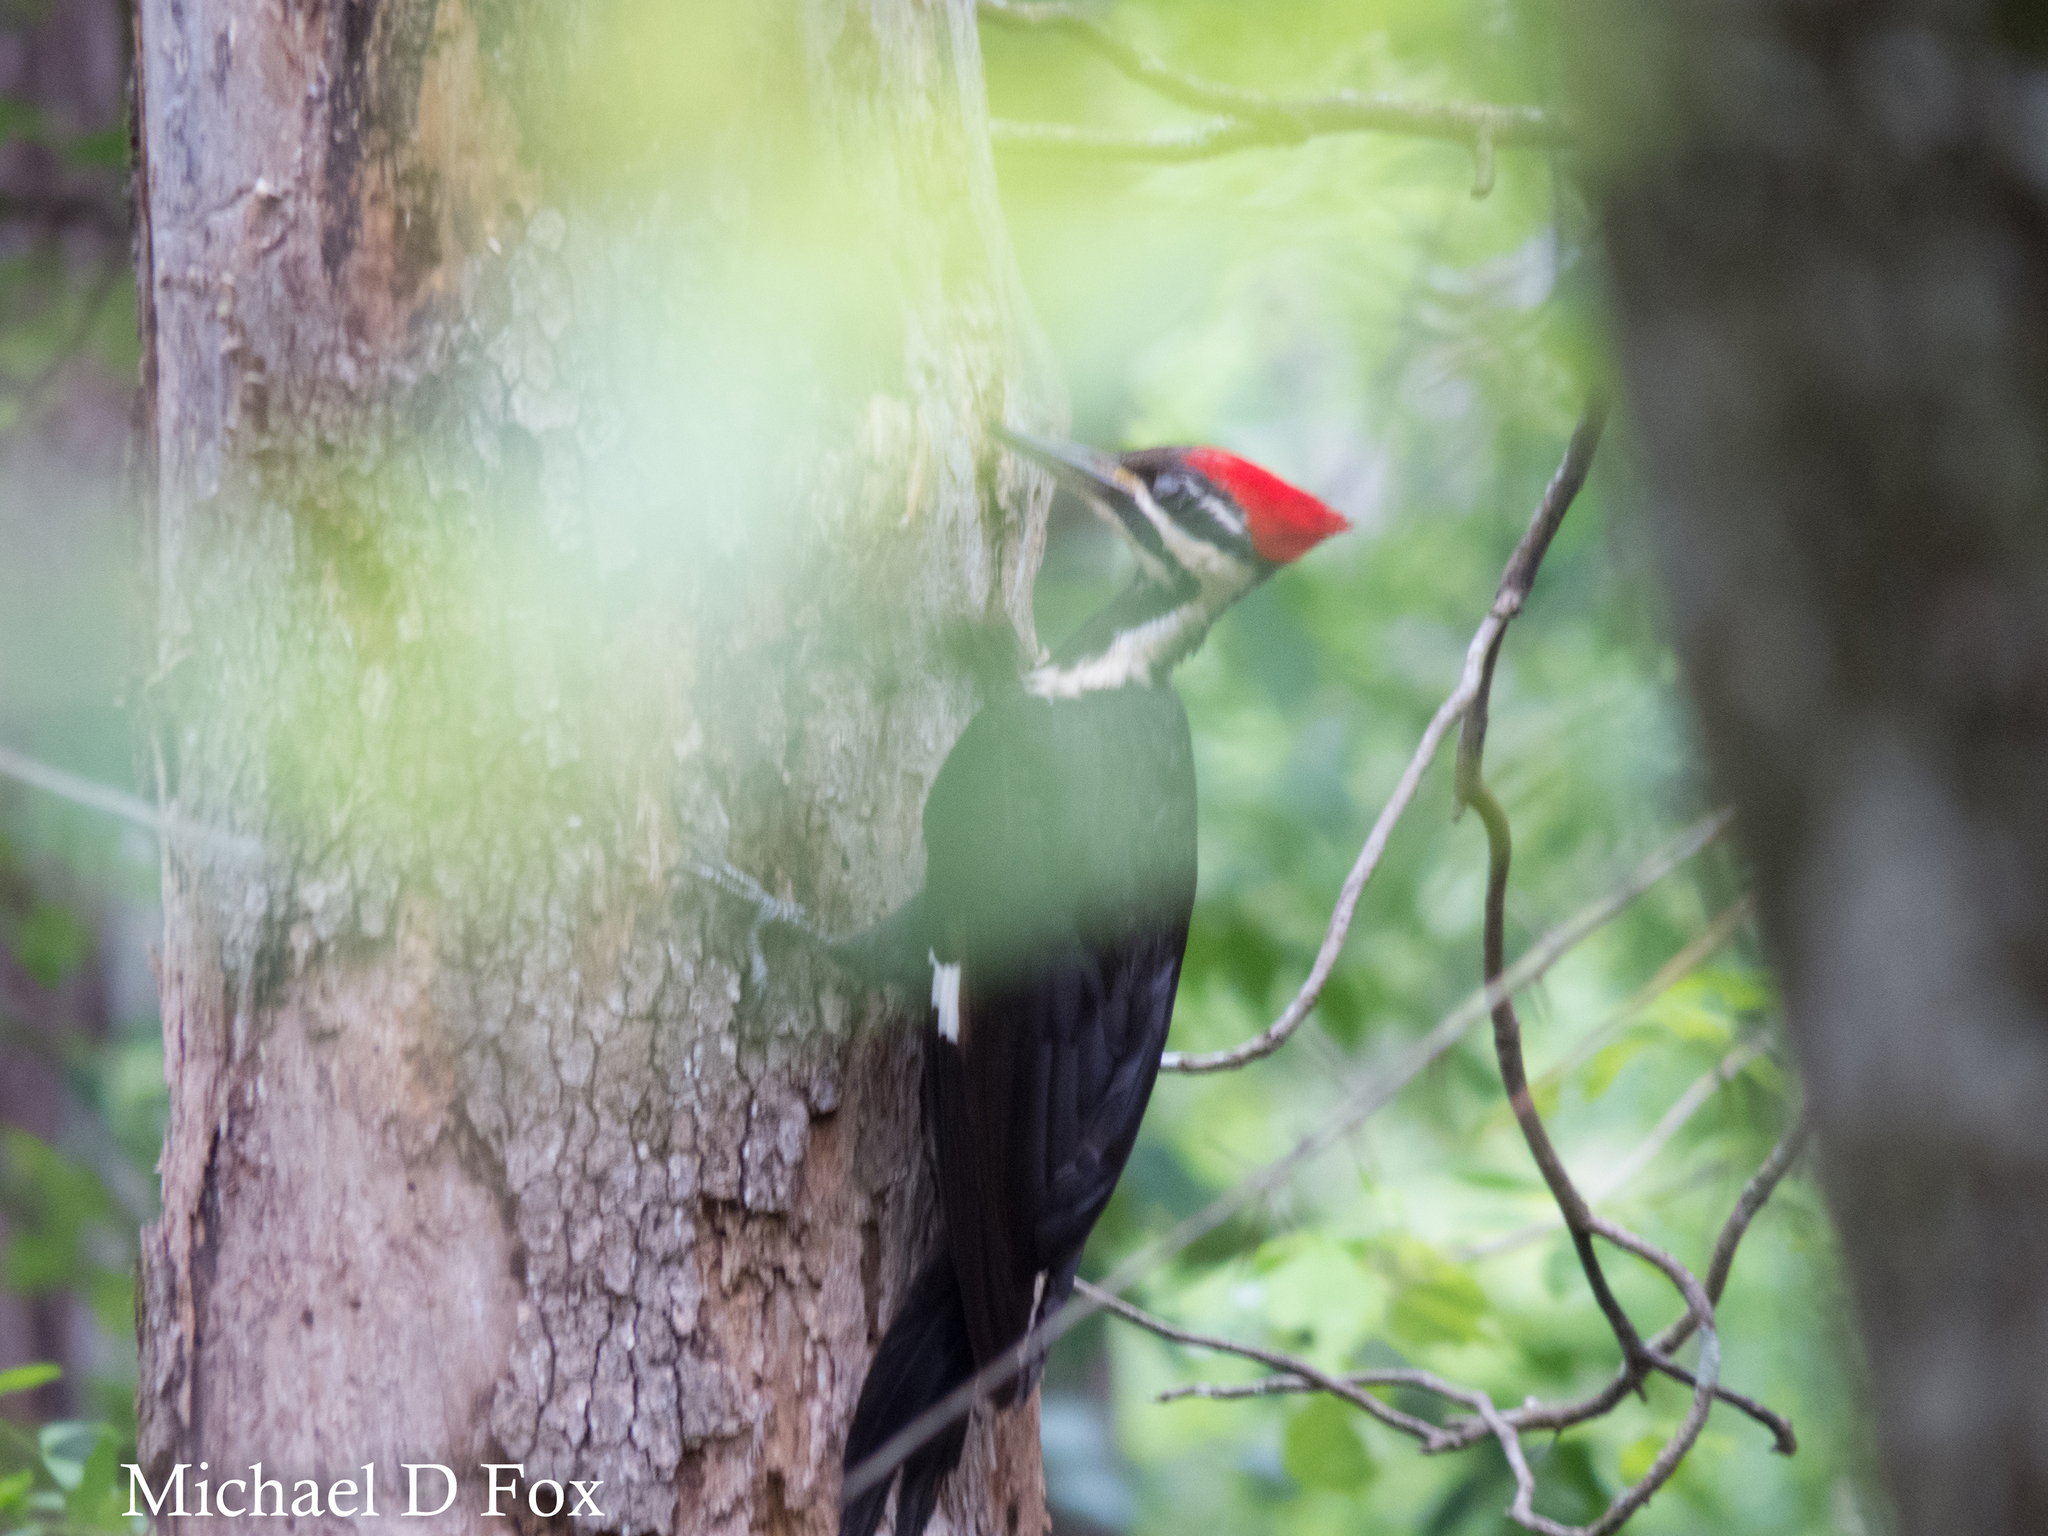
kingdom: Animalia
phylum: Chordata
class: Aves
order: Piciformes
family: Picidae
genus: Dryocopus
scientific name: Dryocopus pileatus
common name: Pileated woodpecker
